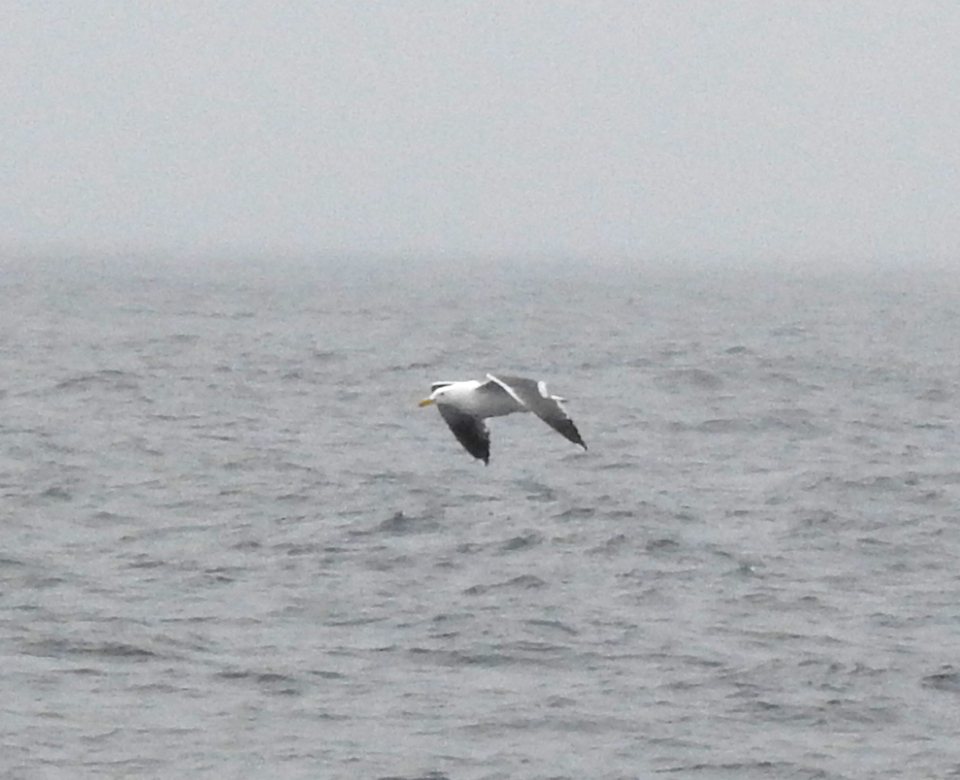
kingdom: Animalia
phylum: Chordata
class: Aves
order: Charadriiformes
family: Laridae
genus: Larus
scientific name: Larus occidentalis
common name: Western gull
